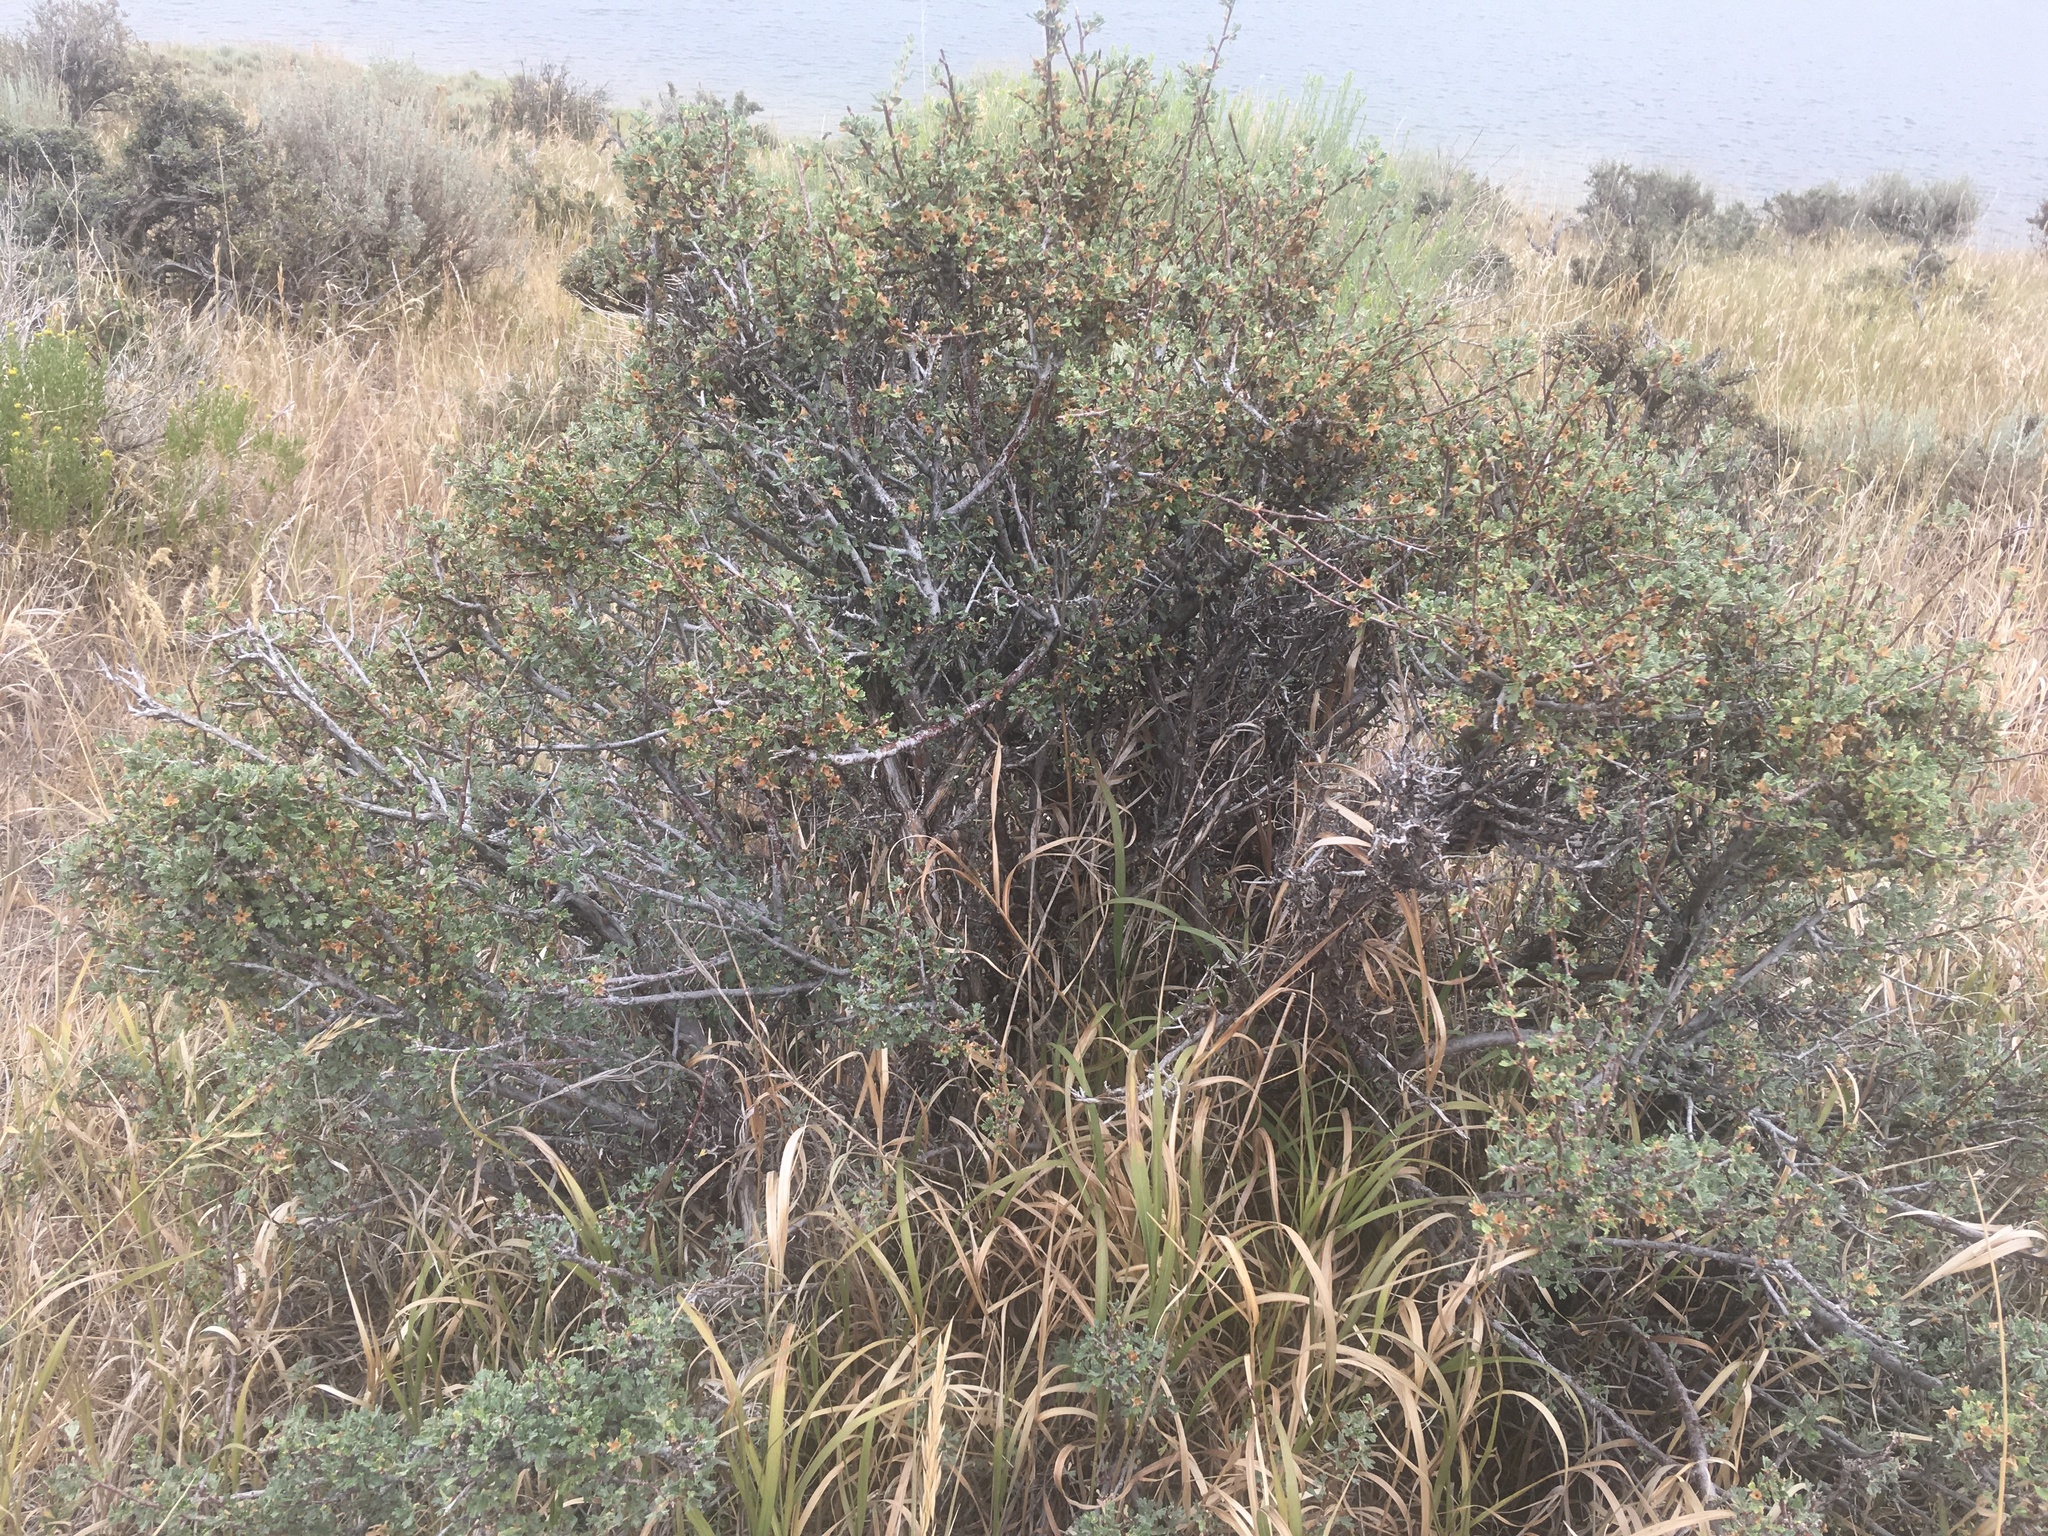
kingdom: Plantae
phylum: Tracheophyta
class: Magnoliopsida
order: Rosales
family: Rosaceae
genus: Purshia
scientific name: Purshia tridentata
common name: Antelope bitterbrush
